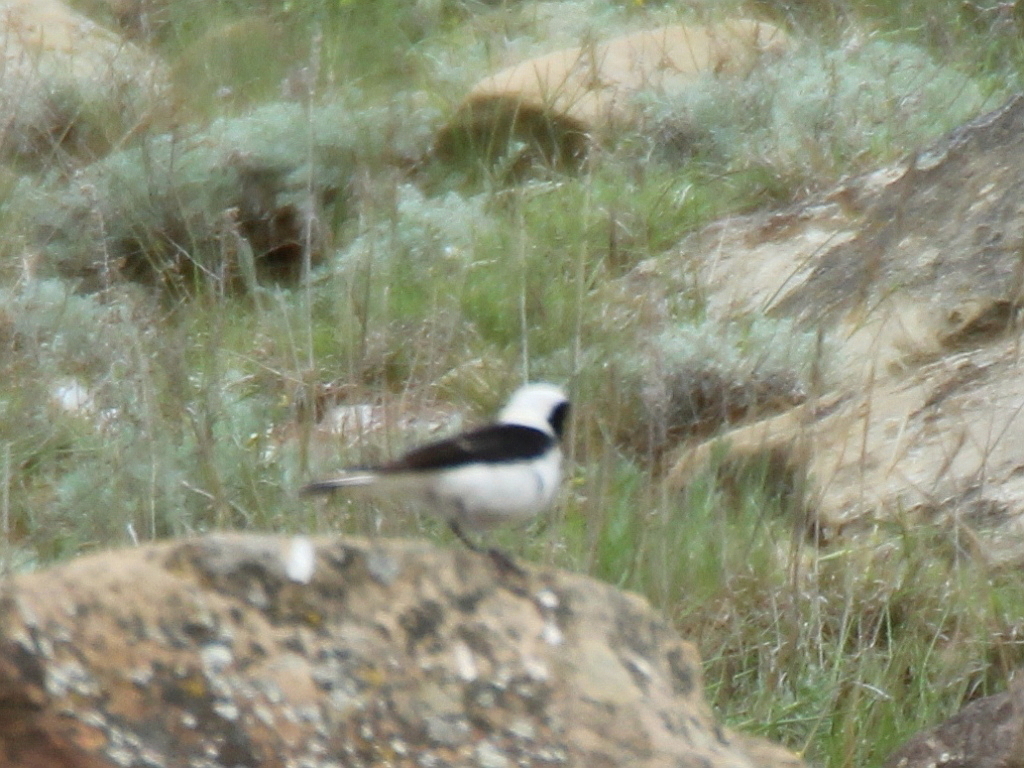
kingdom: Animalia
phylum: Chordata
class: Aves
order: Passeriformes
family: Muscicapidae
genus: Oenanthe
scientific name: Oenanthe hispanica
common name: Black-eared wheatear
